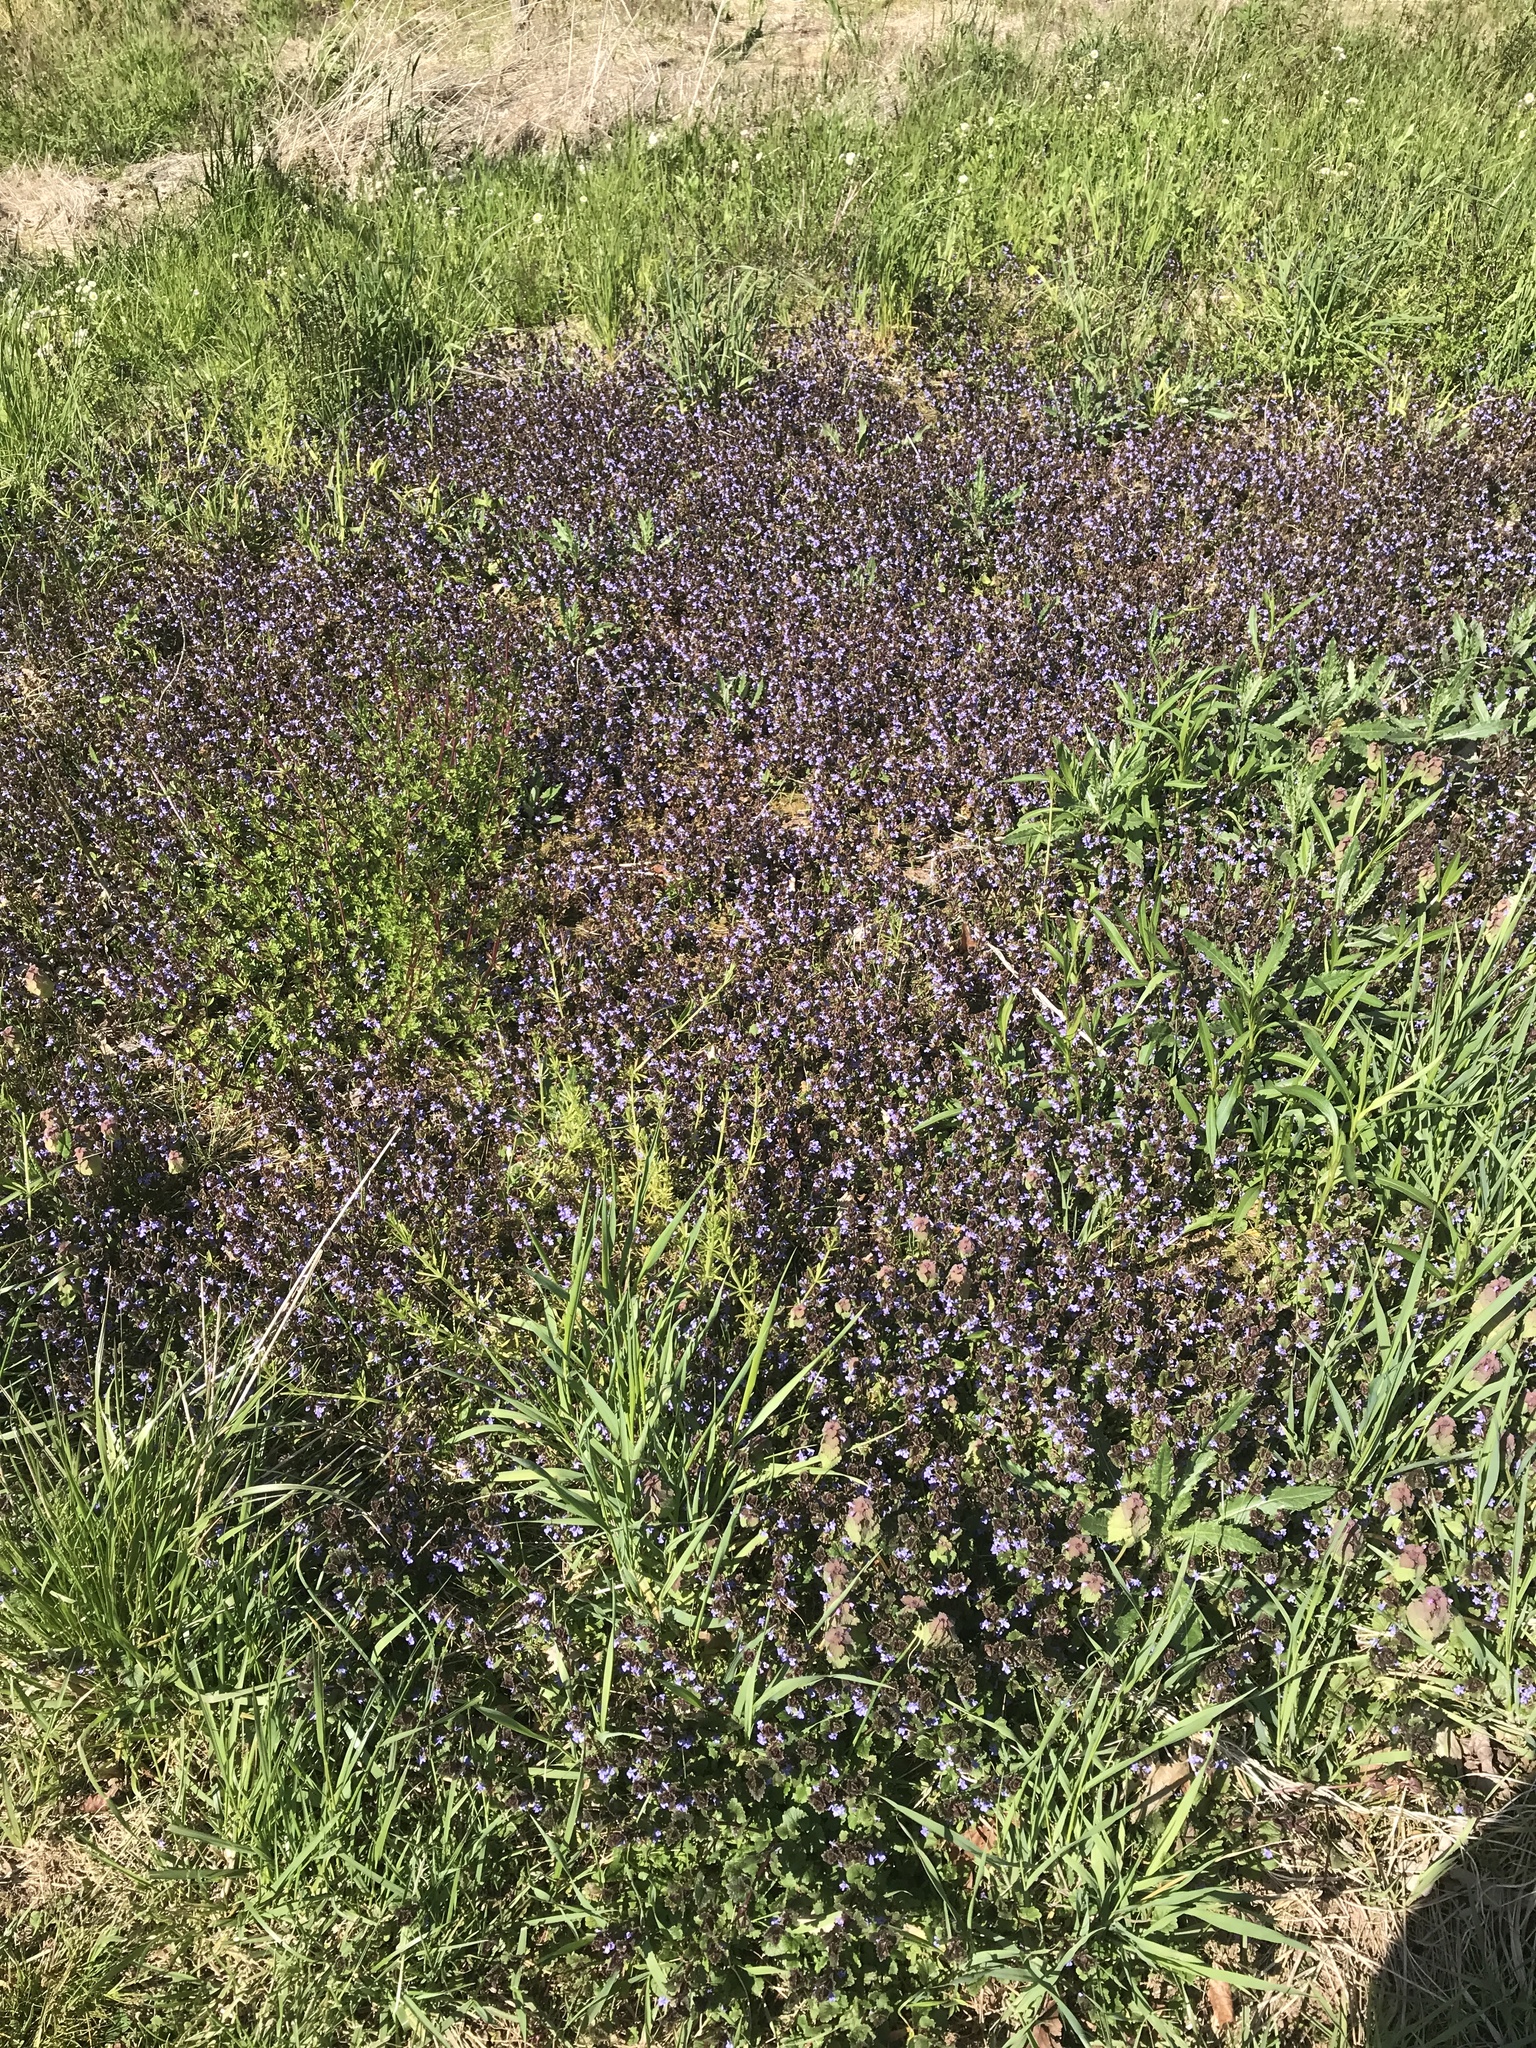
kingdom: Plantae
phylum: Tracheophyta
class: Magnoliopsida
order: Lamiales
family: Lamiaceae
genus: Glechoma
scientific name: Glechoma hederacea
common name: Ground ivy
